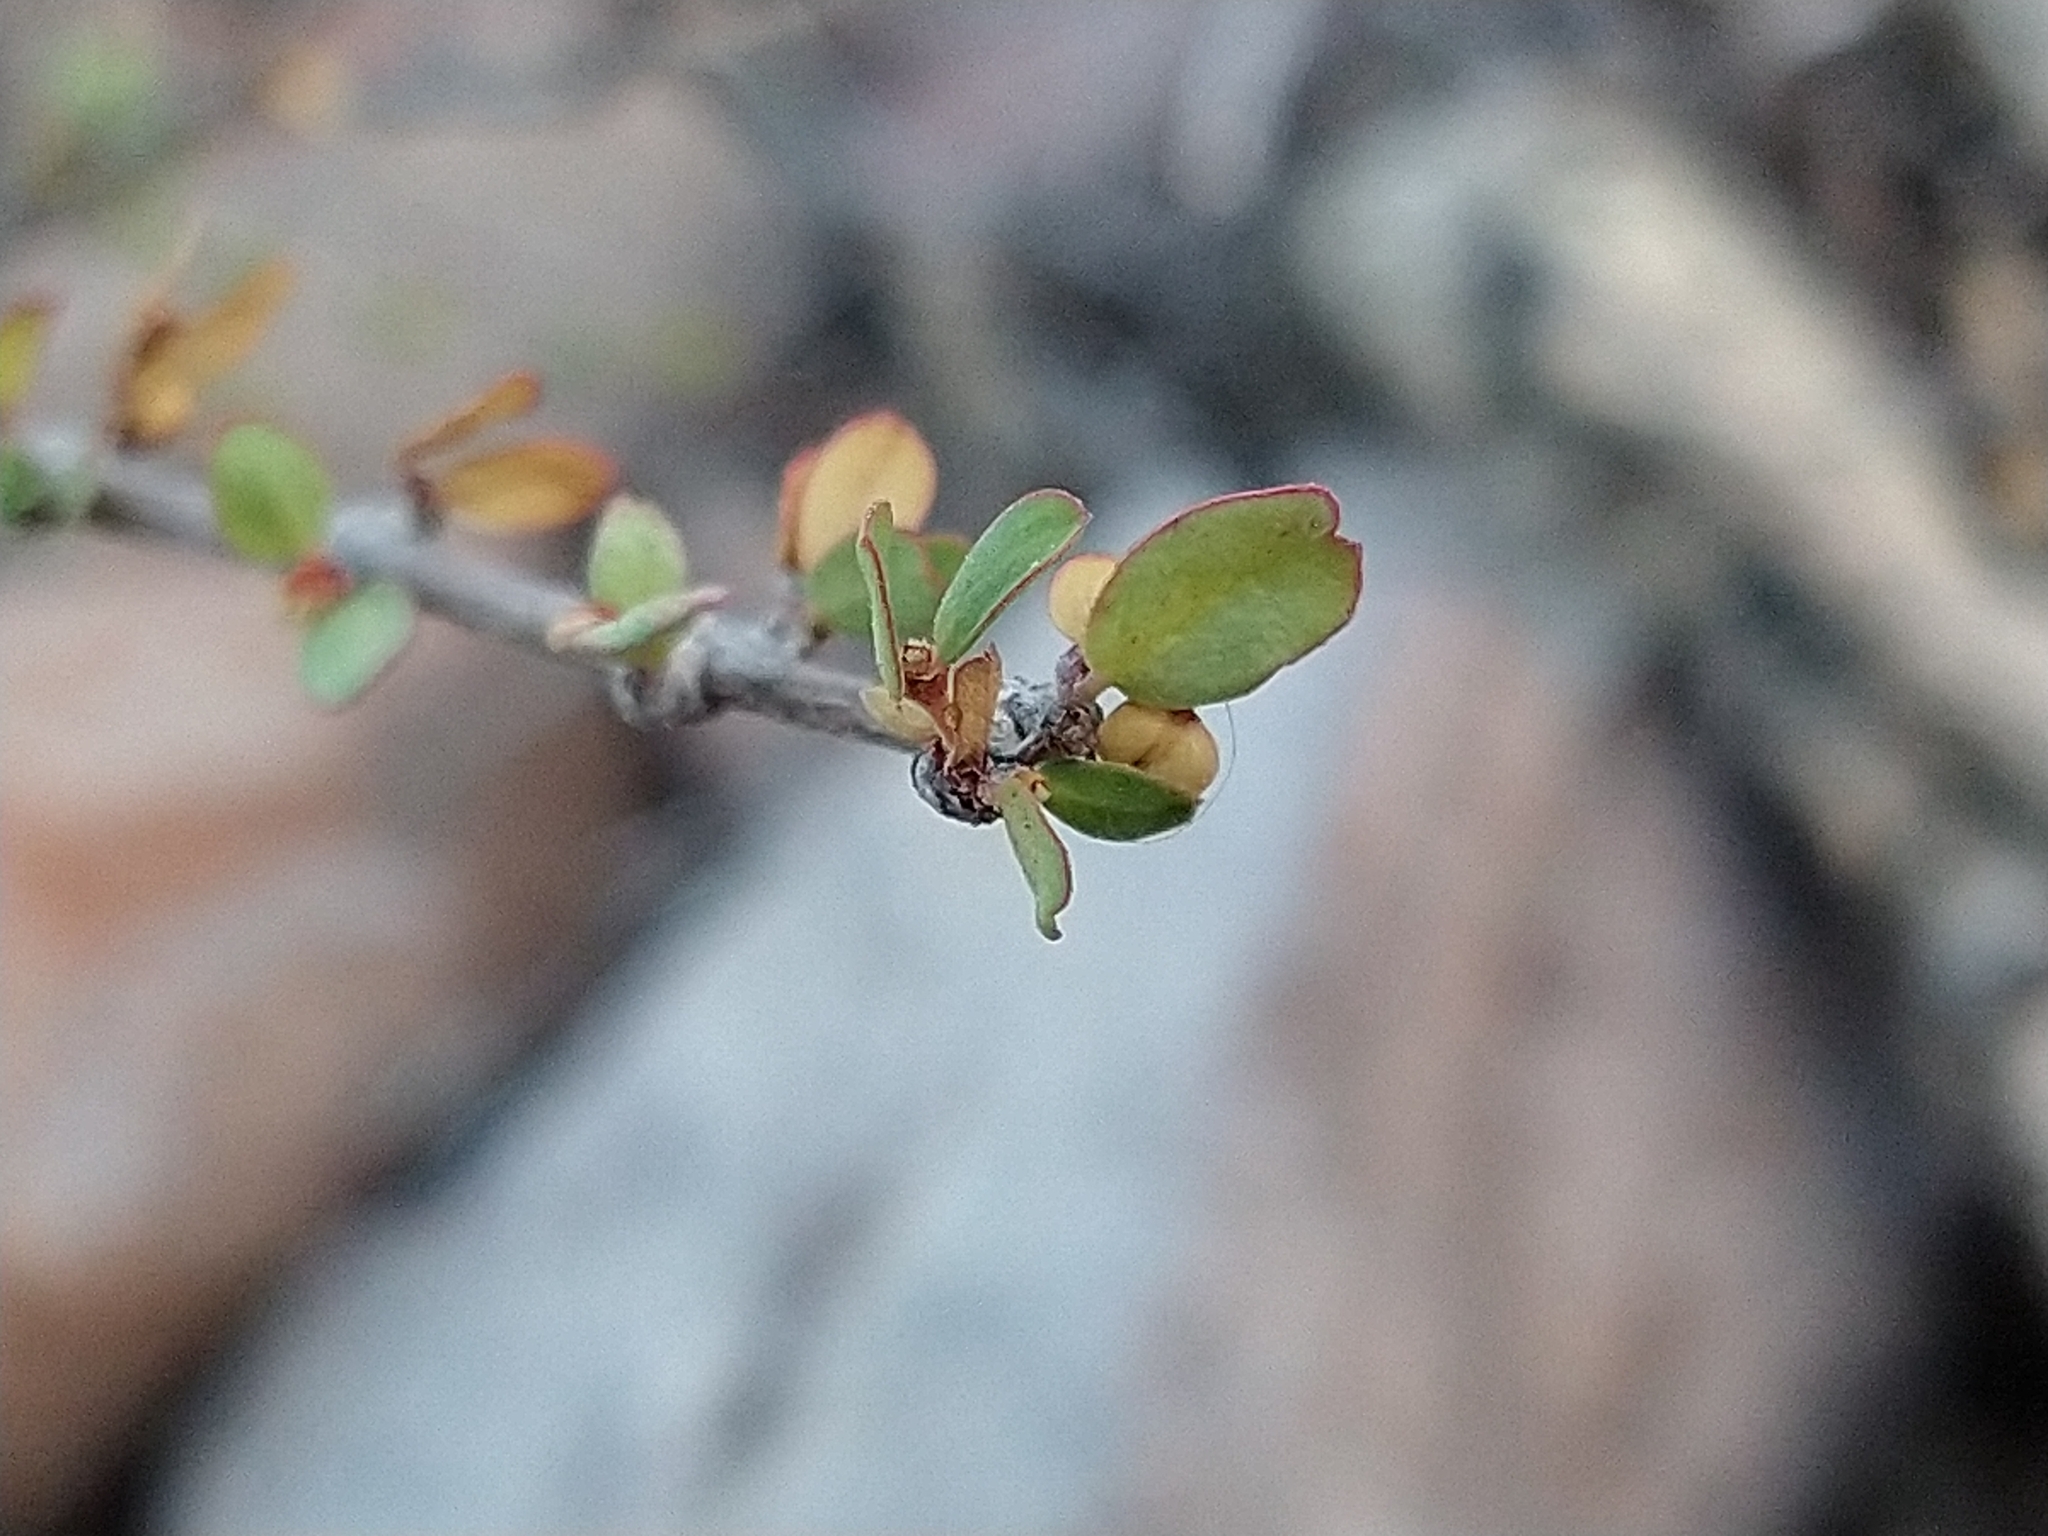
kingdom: Plantae
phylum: Tracheophyta
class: Magnoliopsida
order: Malpighiales
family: Euphorbiaceae
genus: Euphorbia
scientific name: Euphorbia magdalenae
